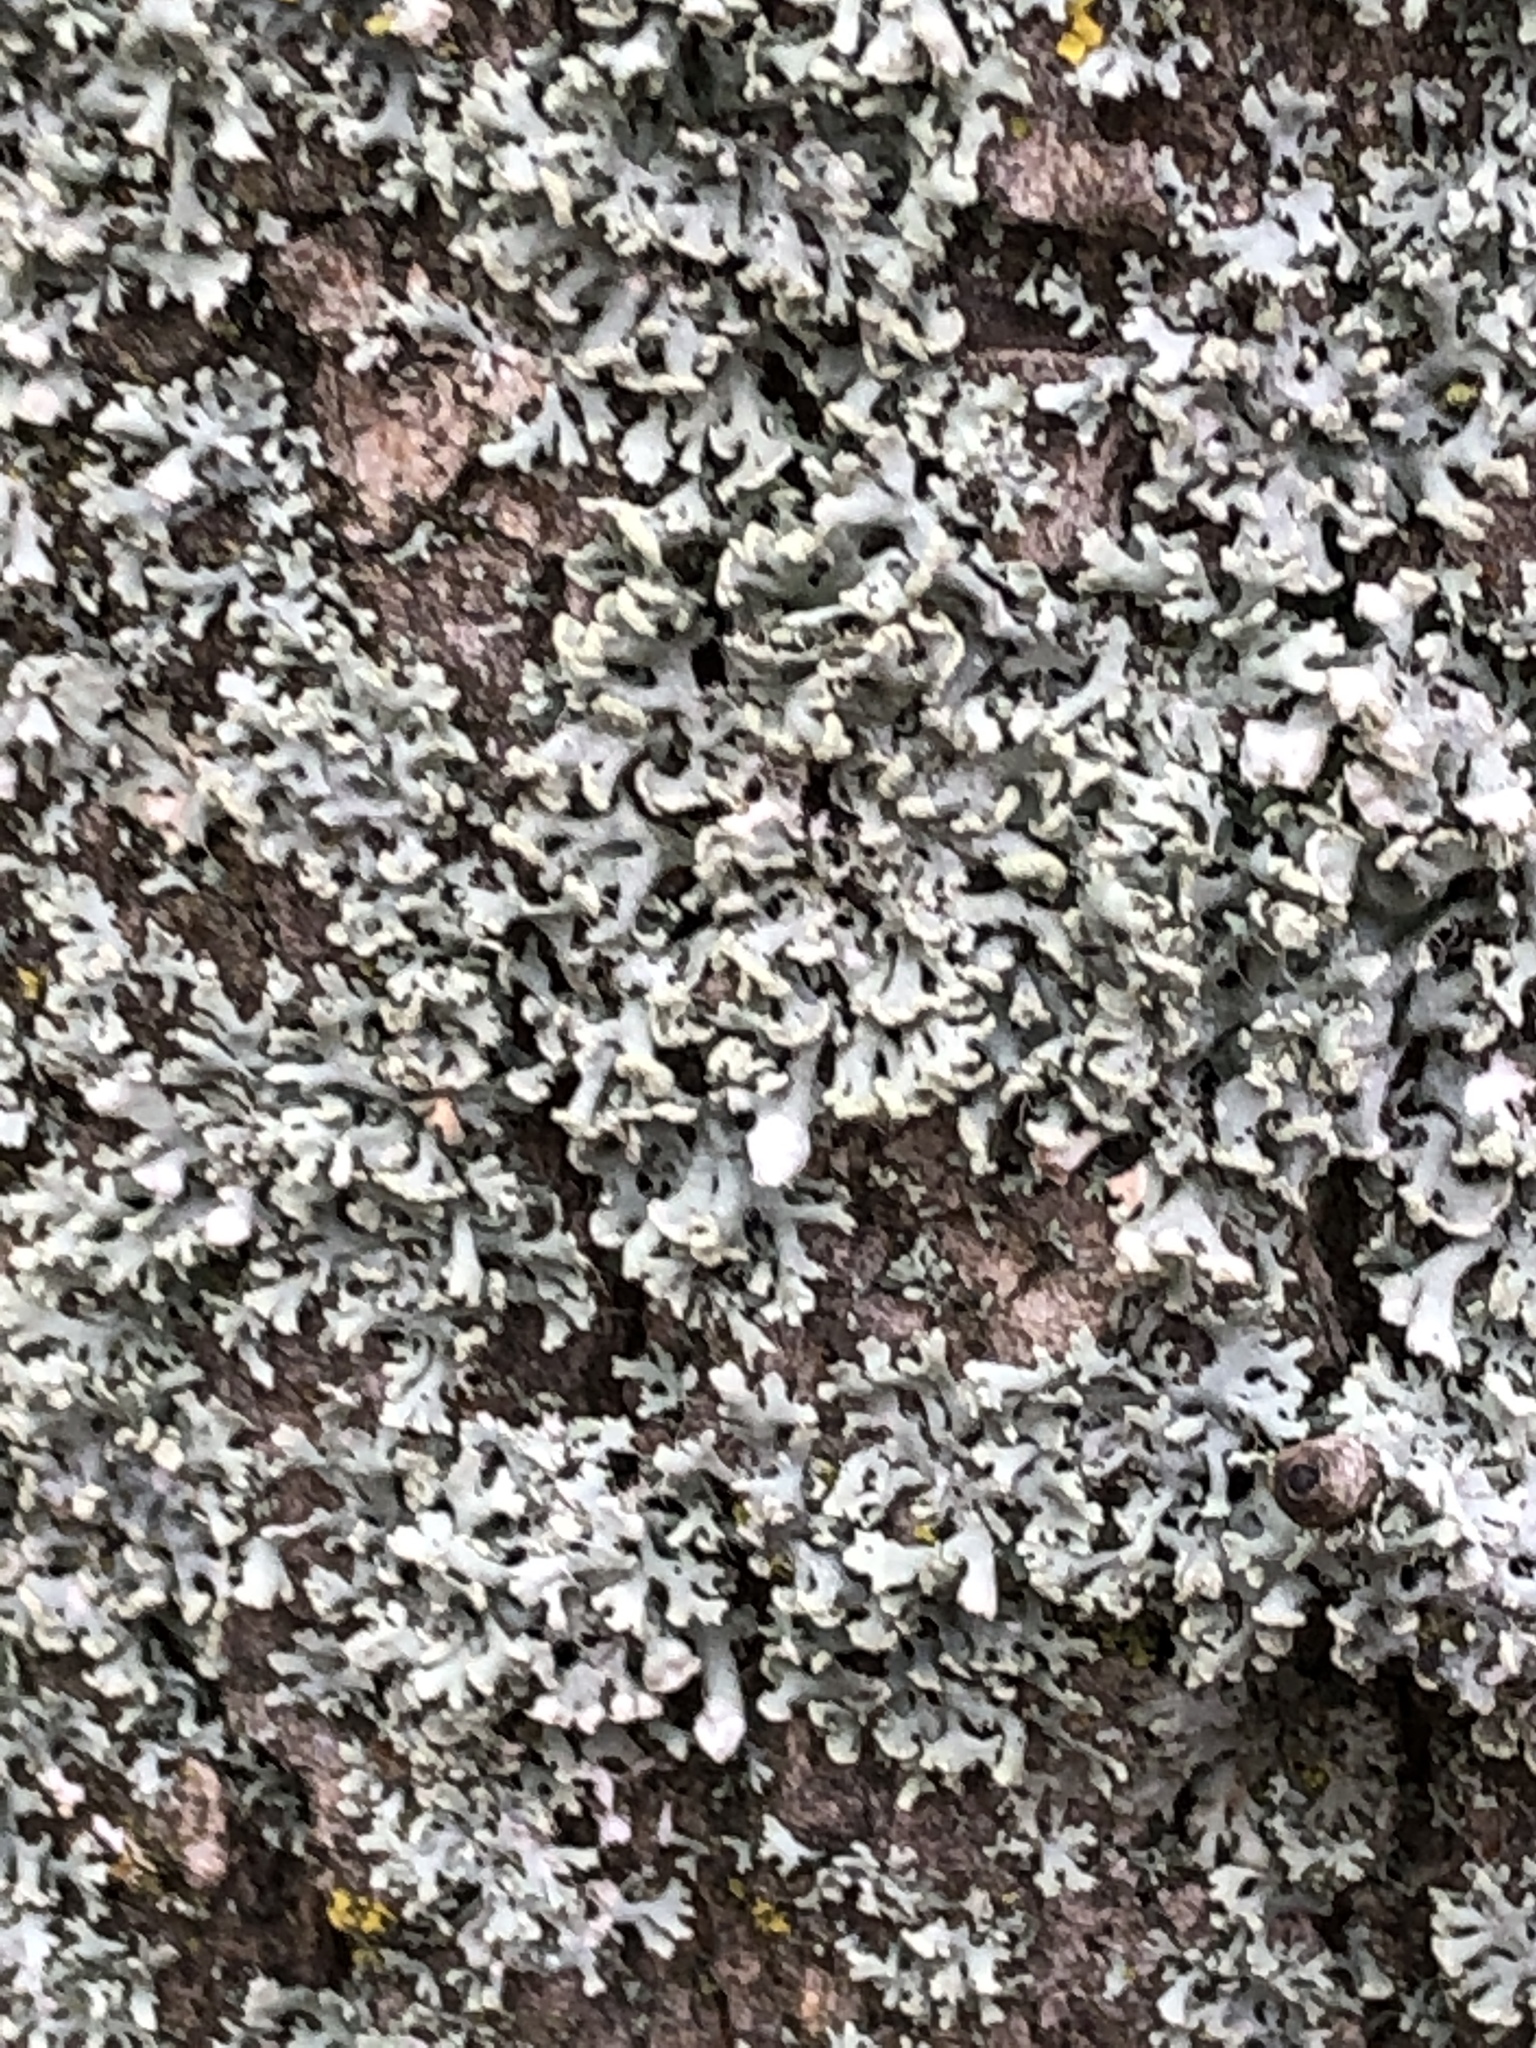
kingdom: Fungi
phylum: Ascomycota
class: Lecanoromycetes
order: Caliciales
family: Physciaceae
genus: Physcia
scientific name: Physcia adscendens
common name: Hooded rosette lichen
